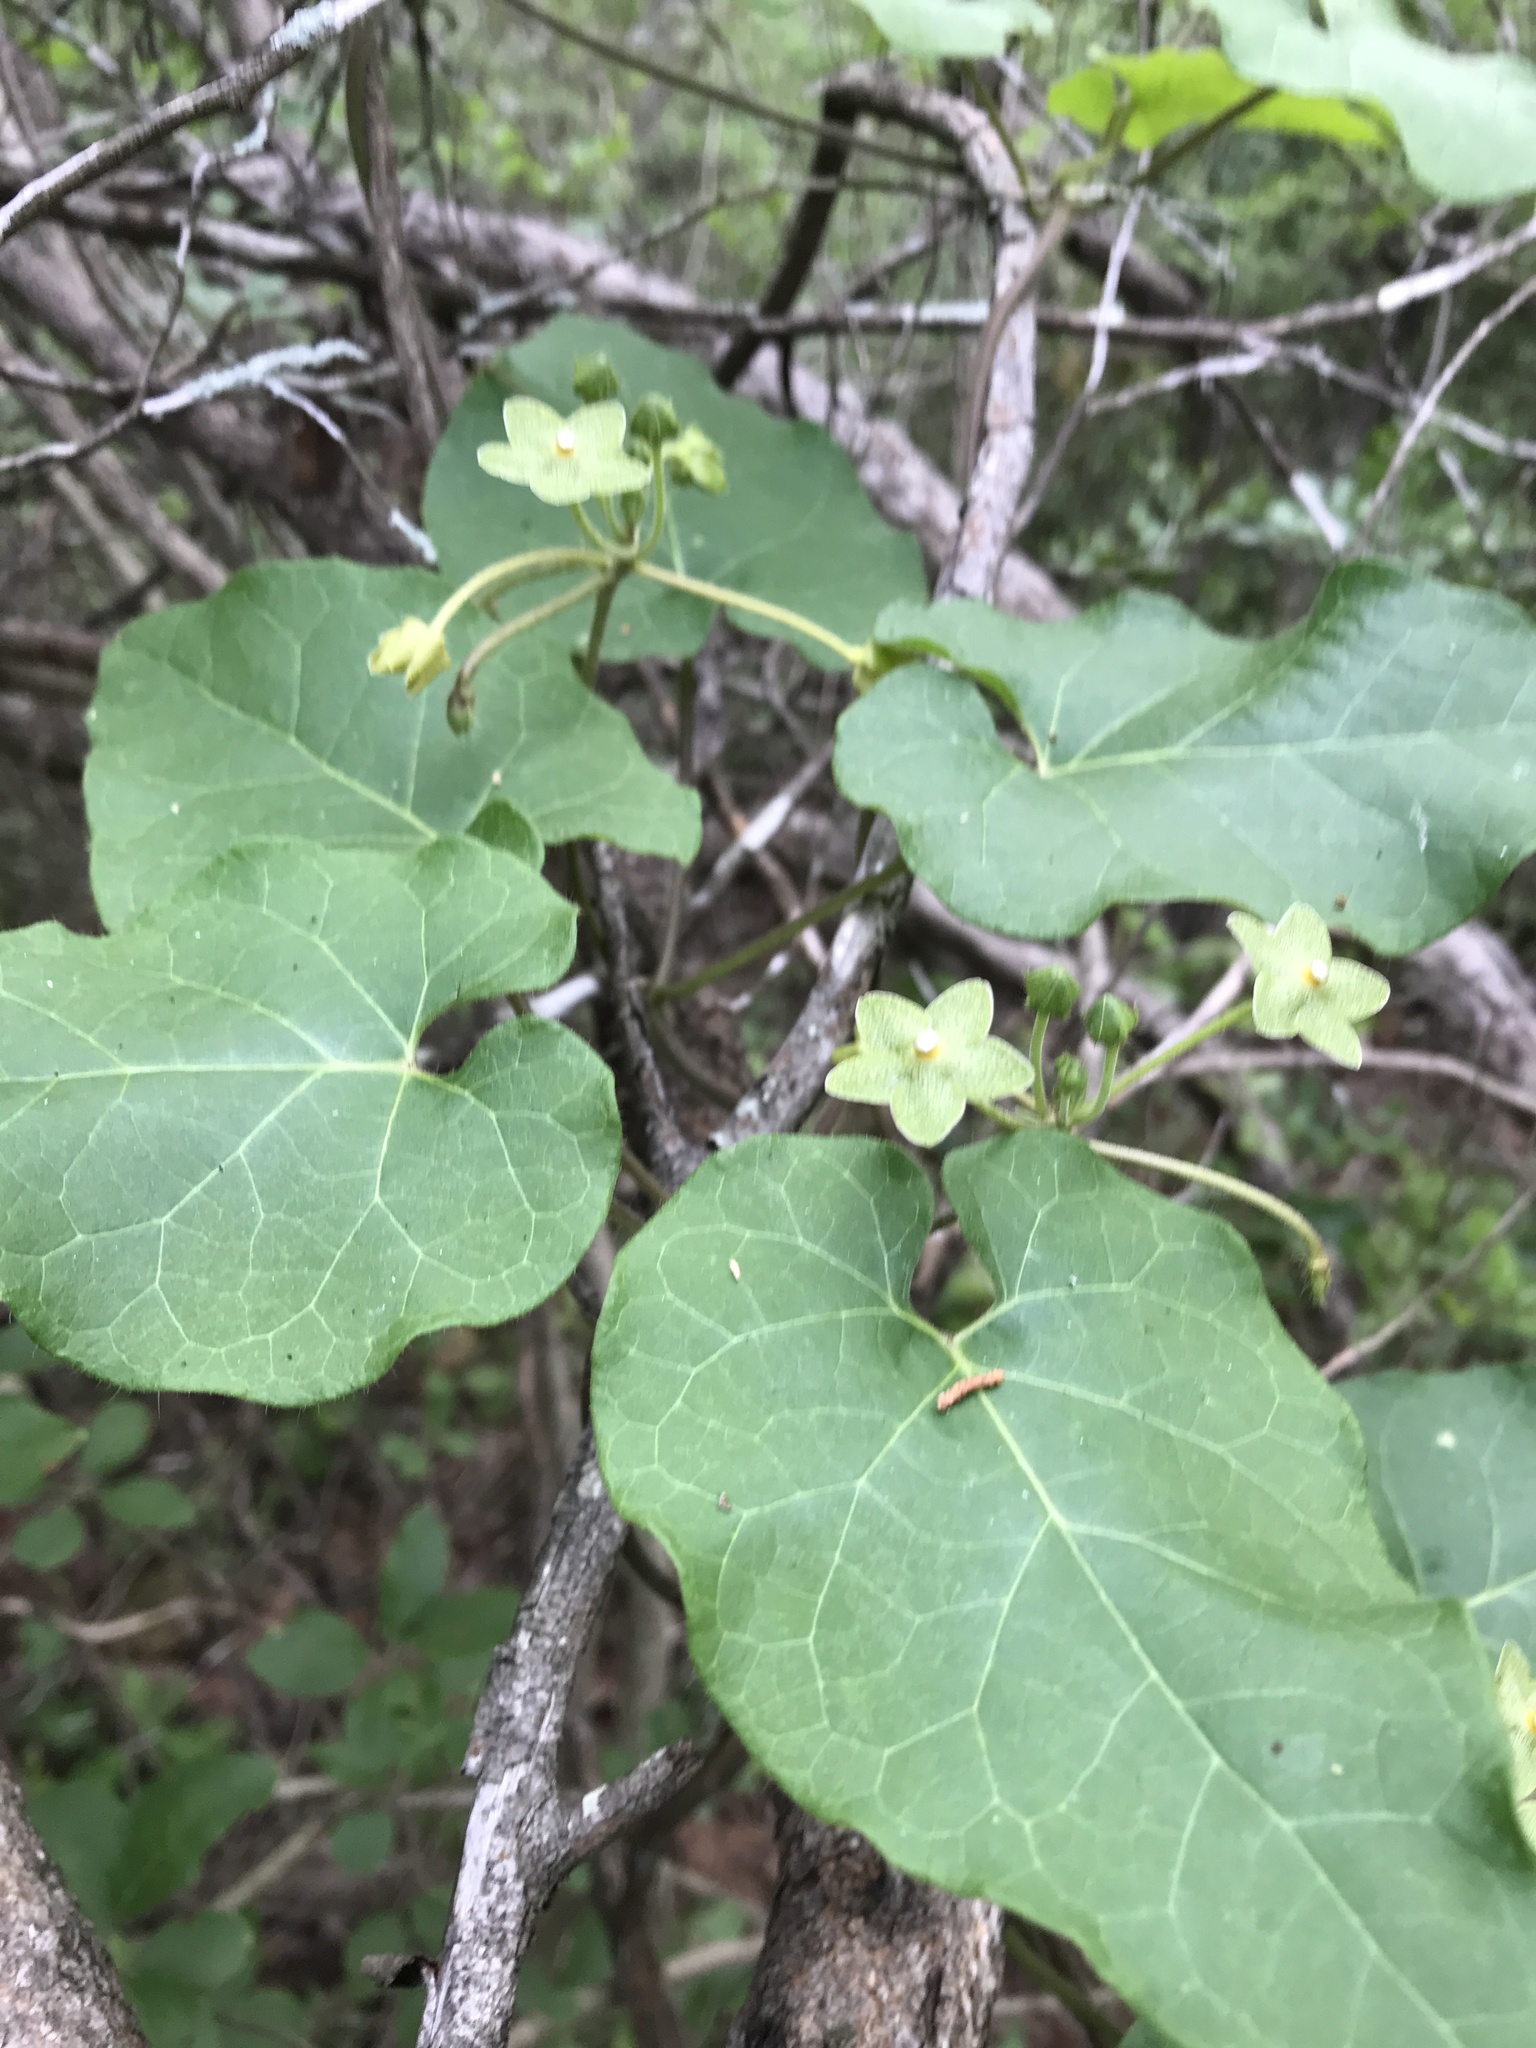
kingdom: Plantae
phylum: Tracheophyta
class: Magnoliopsida
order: Gentianales
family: Apocynaceae
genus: Dictyanthus
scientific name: Dictyanthus reticulatus
